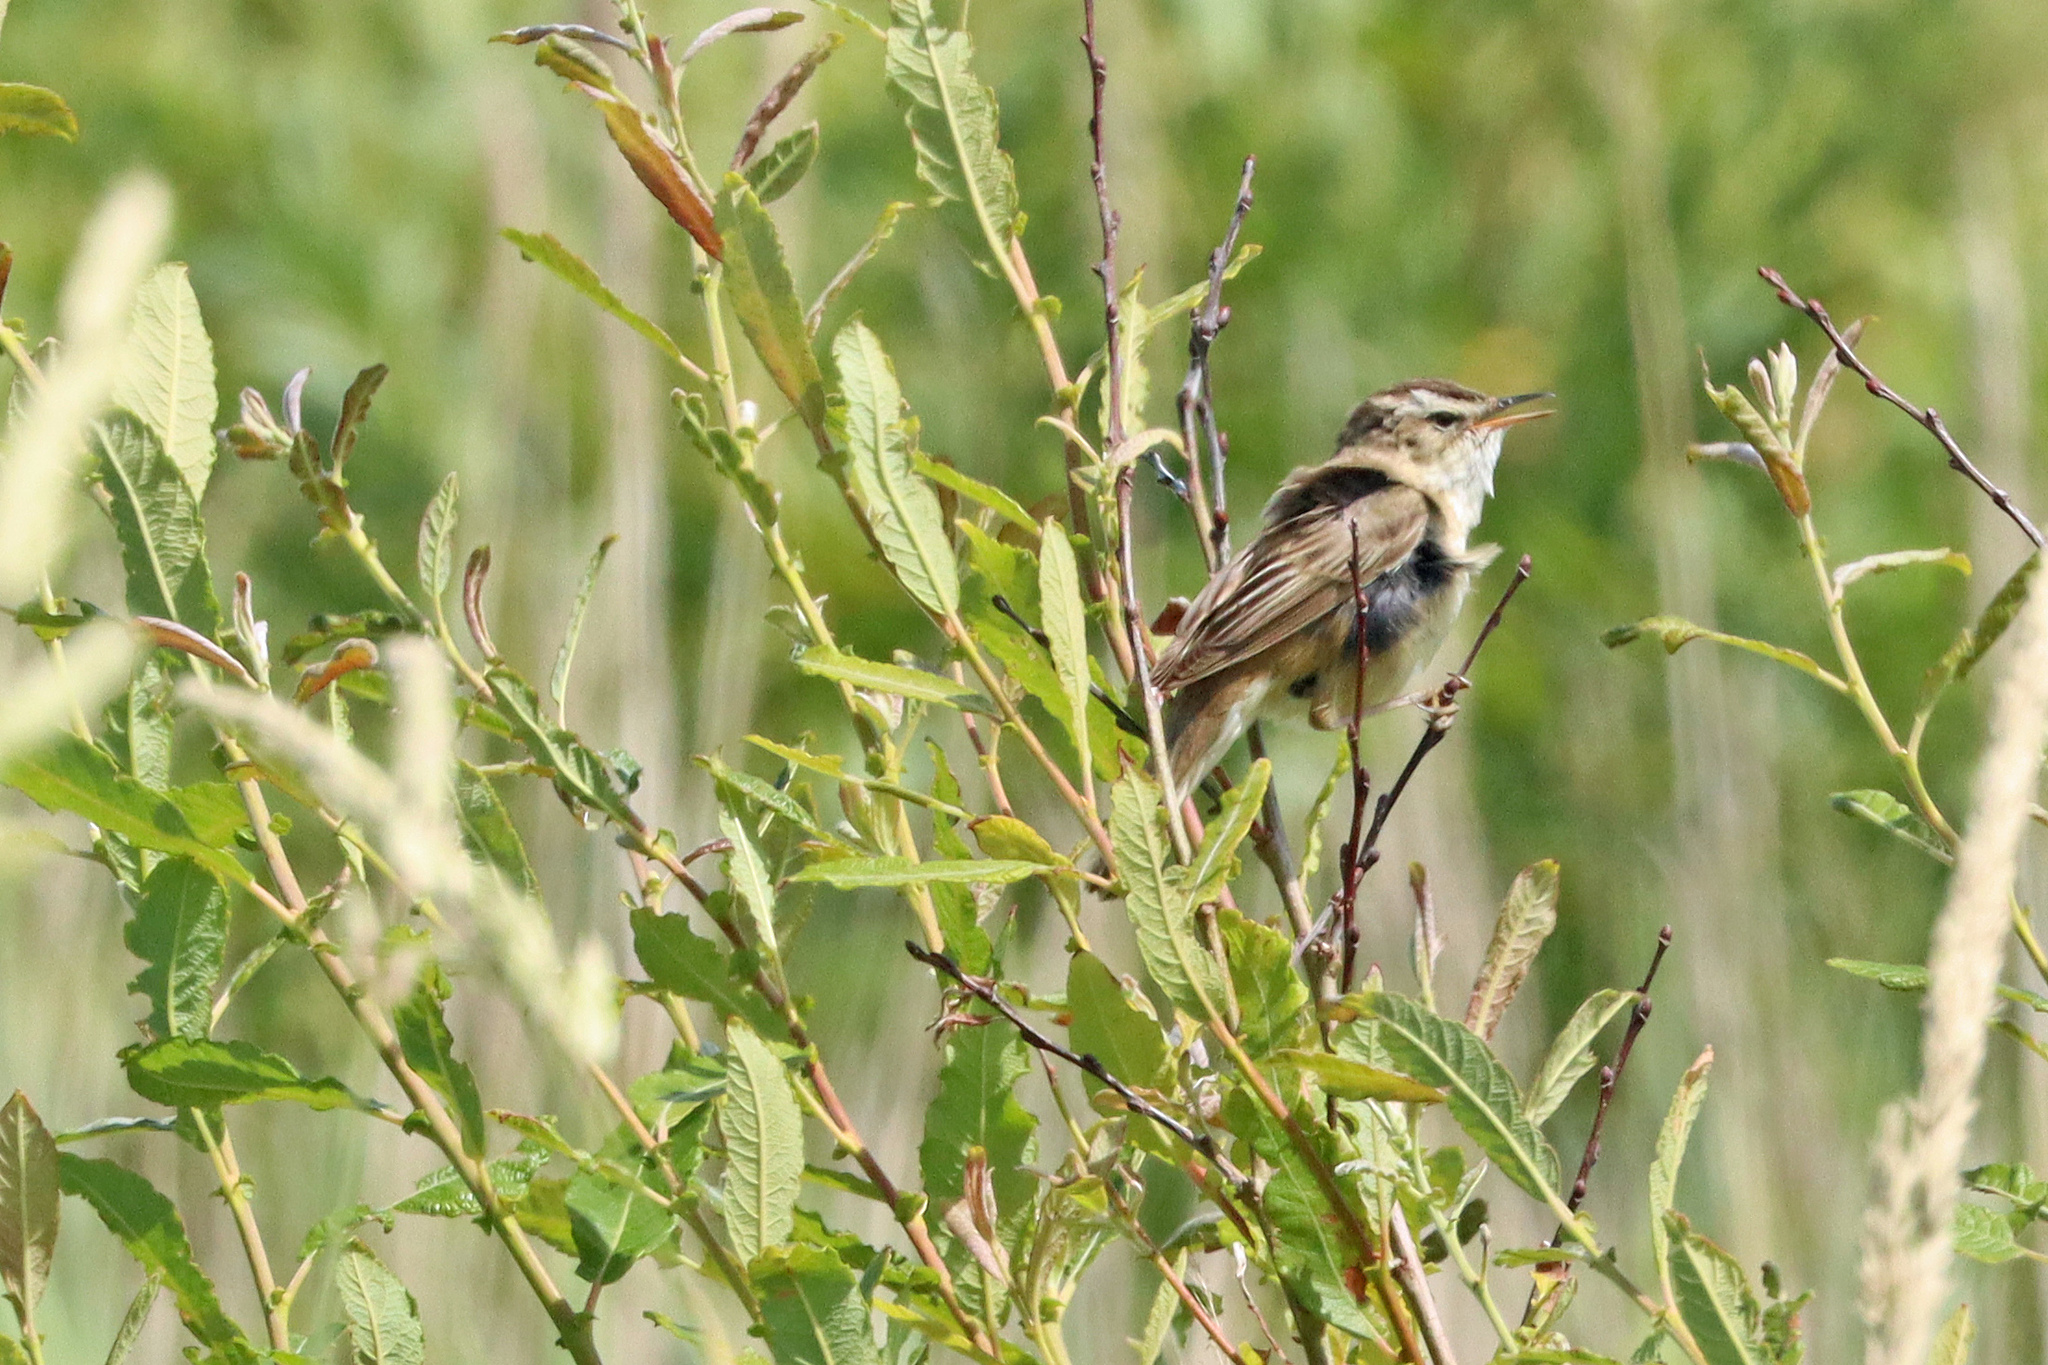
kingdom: Animalia
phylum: Chordata
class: Aves
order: Passeriformes
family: Acrocephalidae
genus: Acrocephalus
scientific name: Acrocephalus schoenobaenus
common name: Sedge warbler
